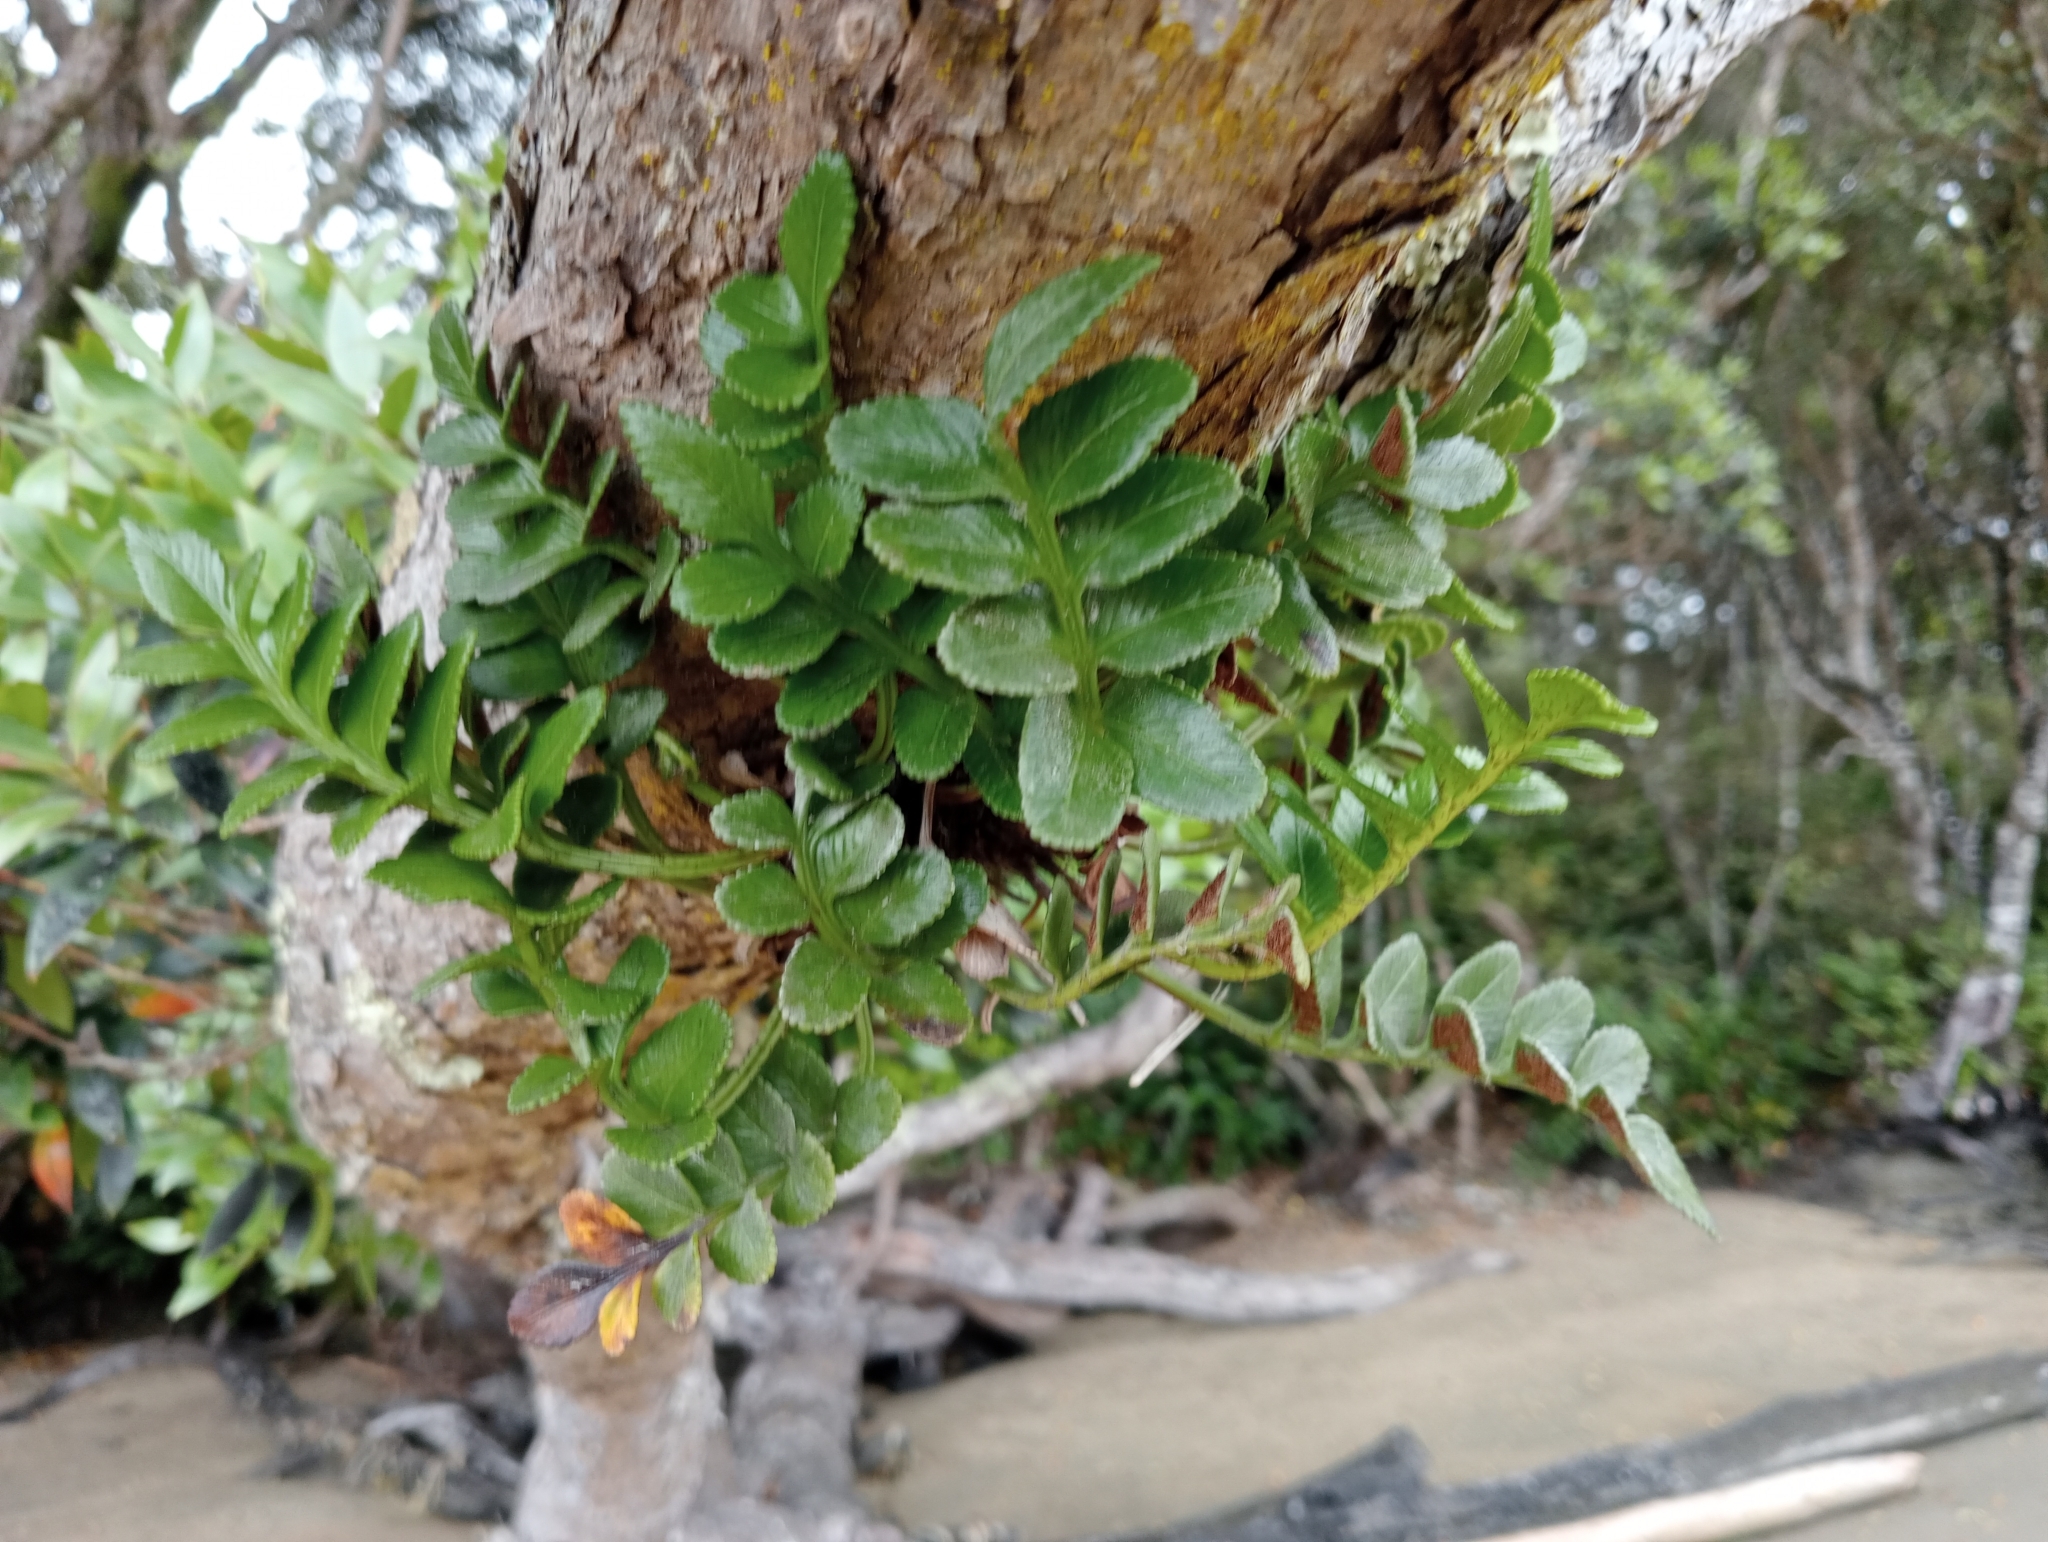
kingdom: Plantae
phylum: Tracheophyta
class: Polypodiopsida
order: Polypodiales
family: Aspleniaceae
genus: Asplenium
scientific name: Asplenium obtusatum
